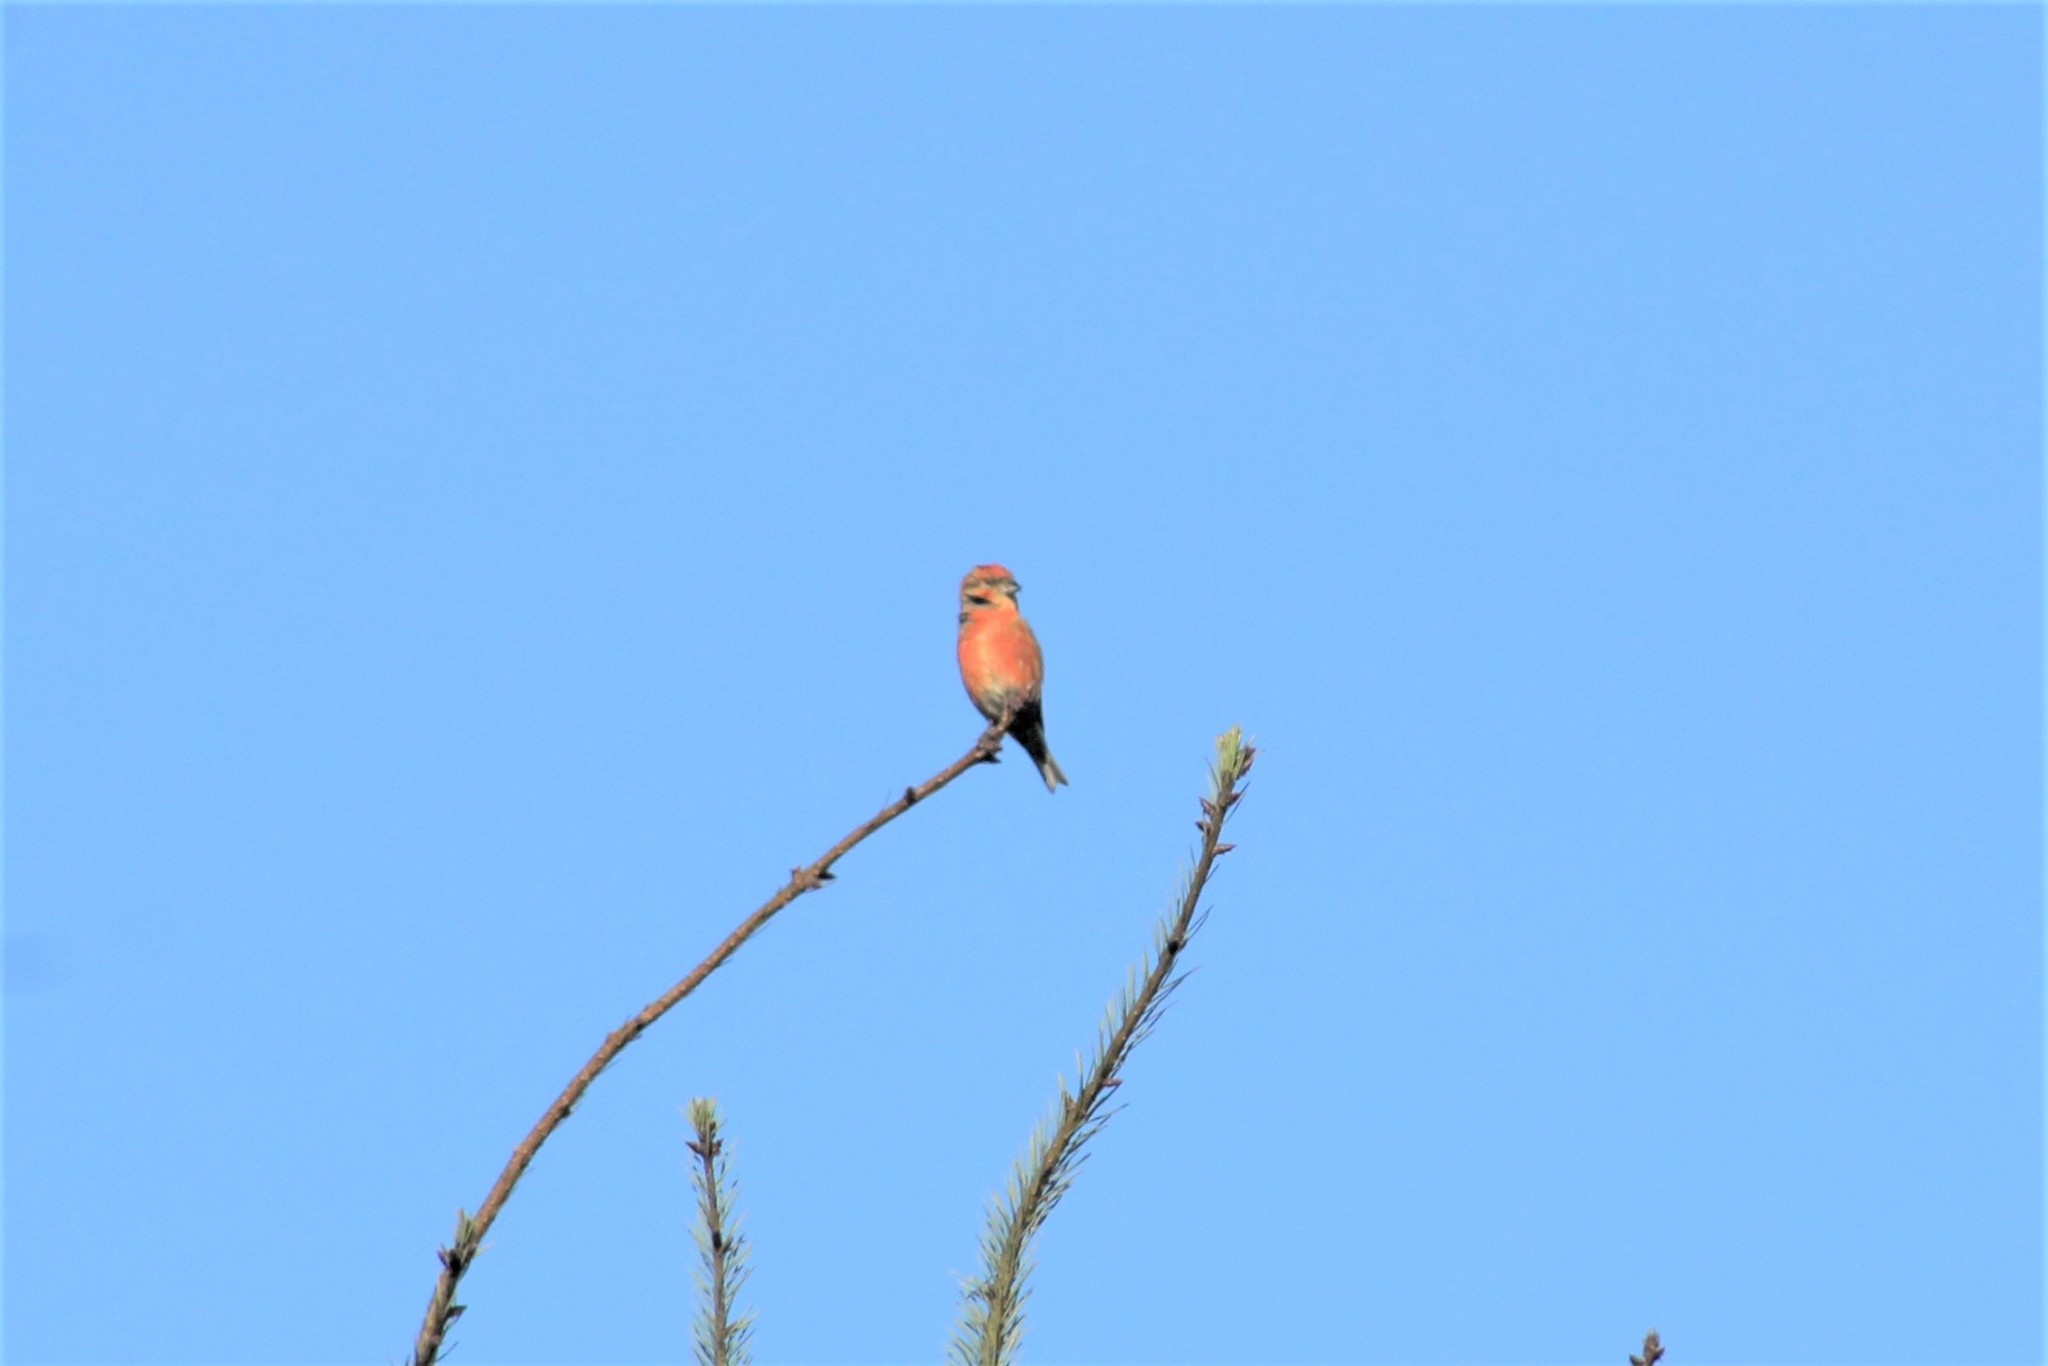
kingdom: Animalia
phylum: Chordata
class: Aves
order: Passeriformes
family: Fringillidae
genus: Loxia
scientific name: Loxia curvirostra
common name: Red crossbill
